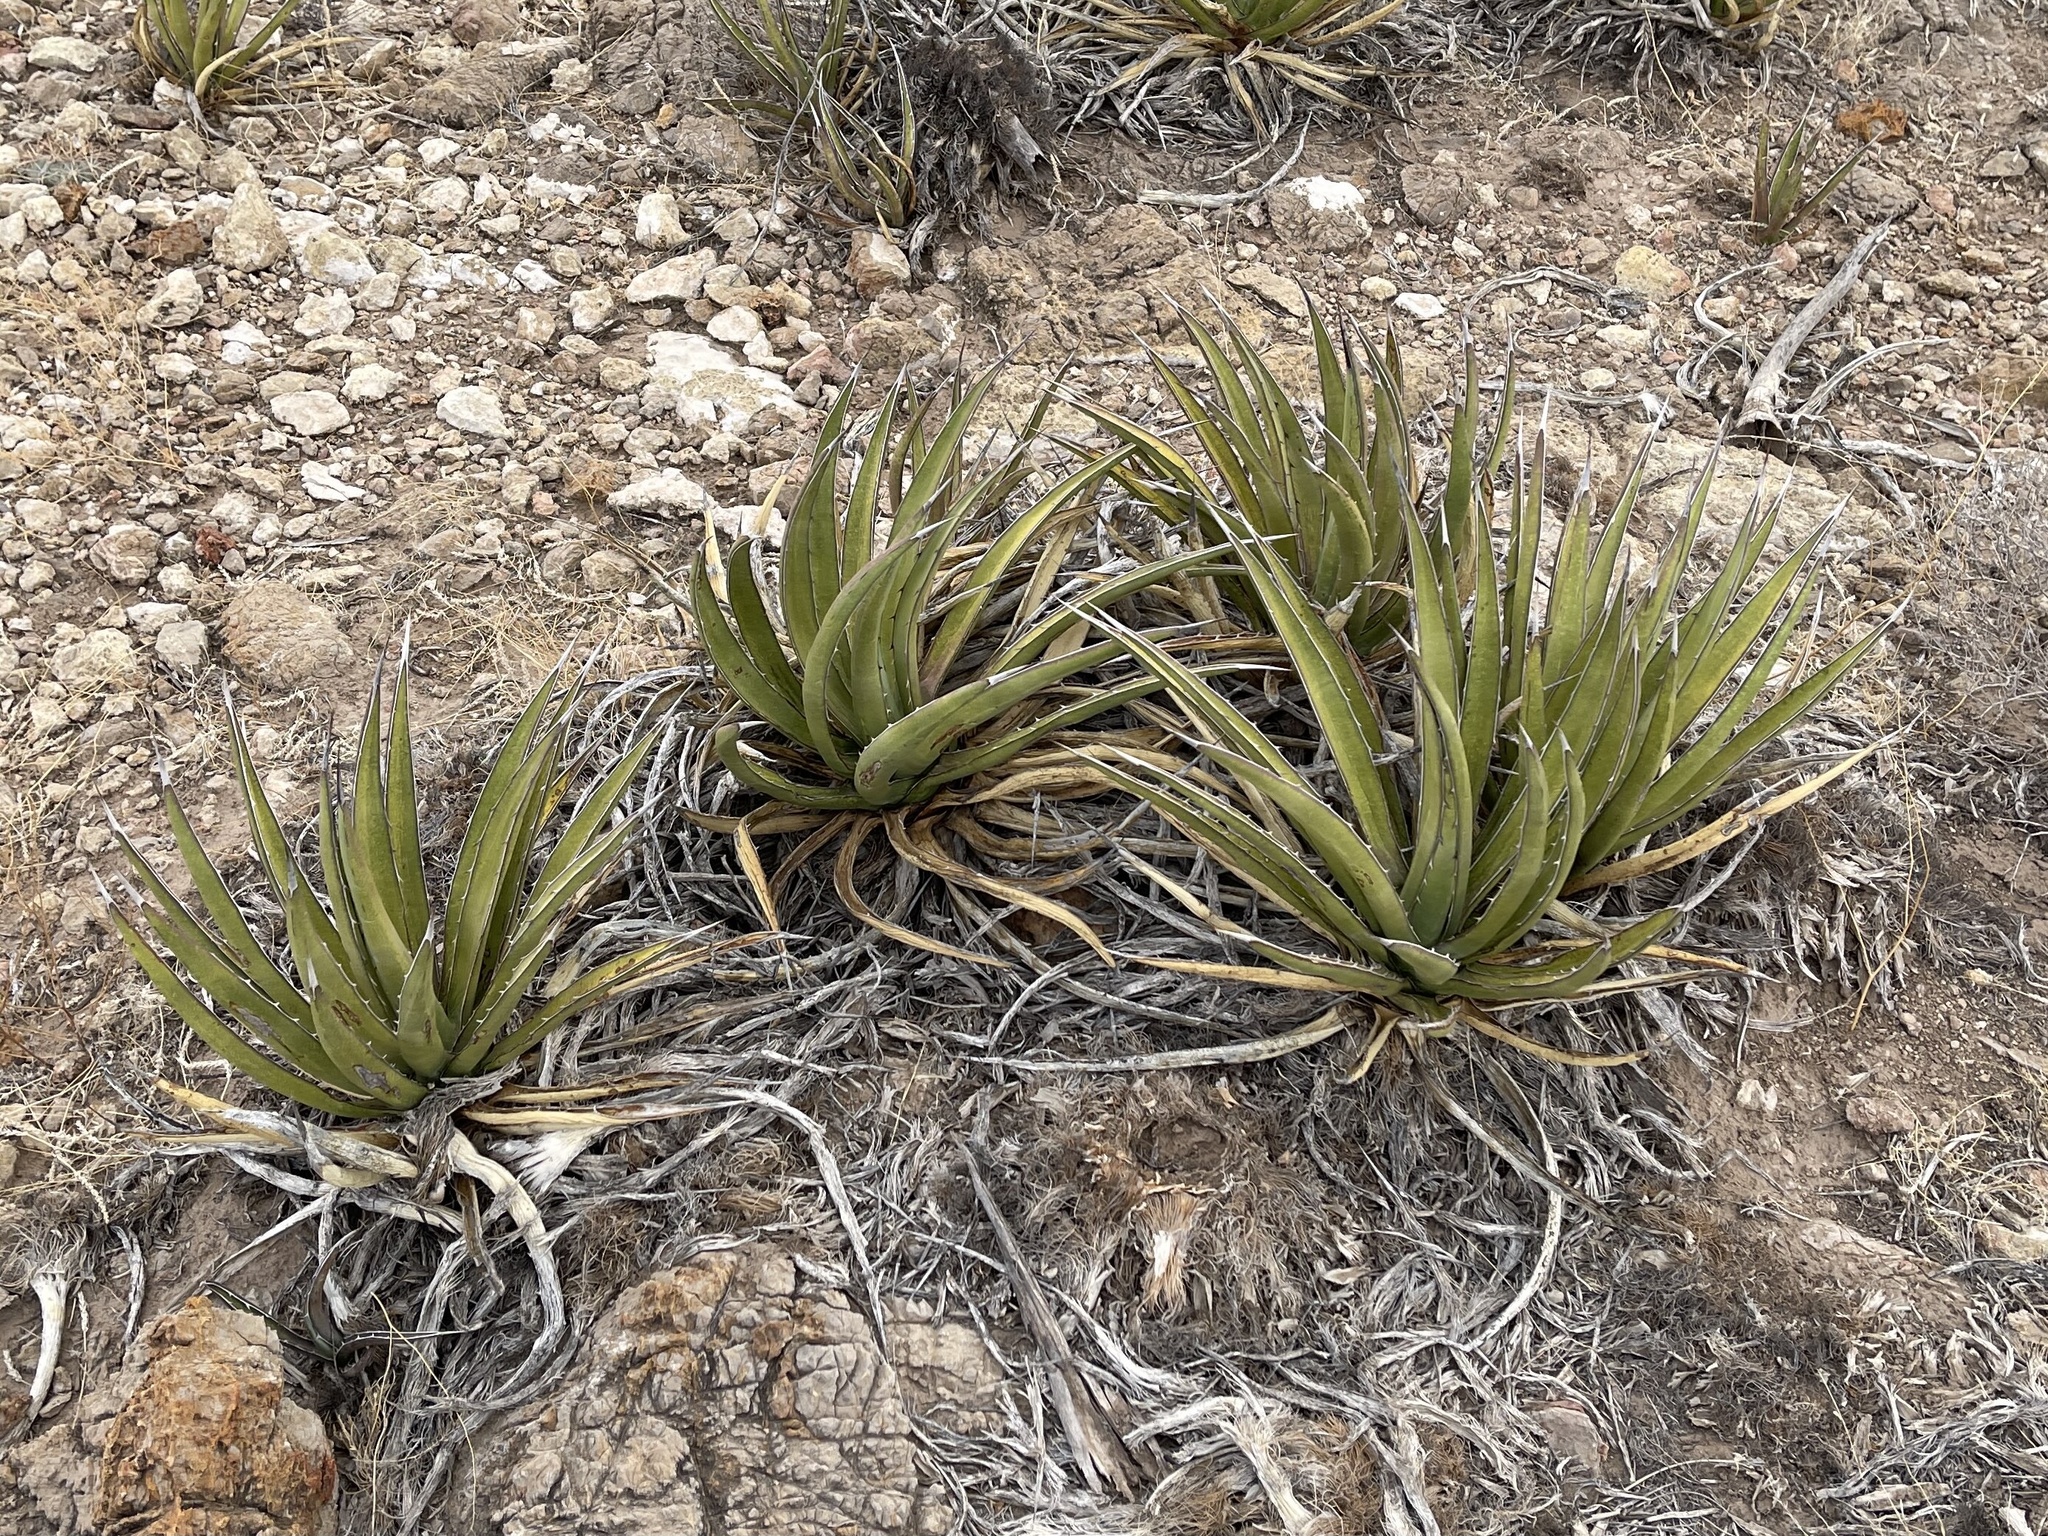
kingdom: Plantae
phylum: Tracheophyta
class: Liliopsida
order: Asparagales
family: Asparagaceae
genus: Agave
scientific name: Agave lechuguilla
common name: Lecheguilla agave
